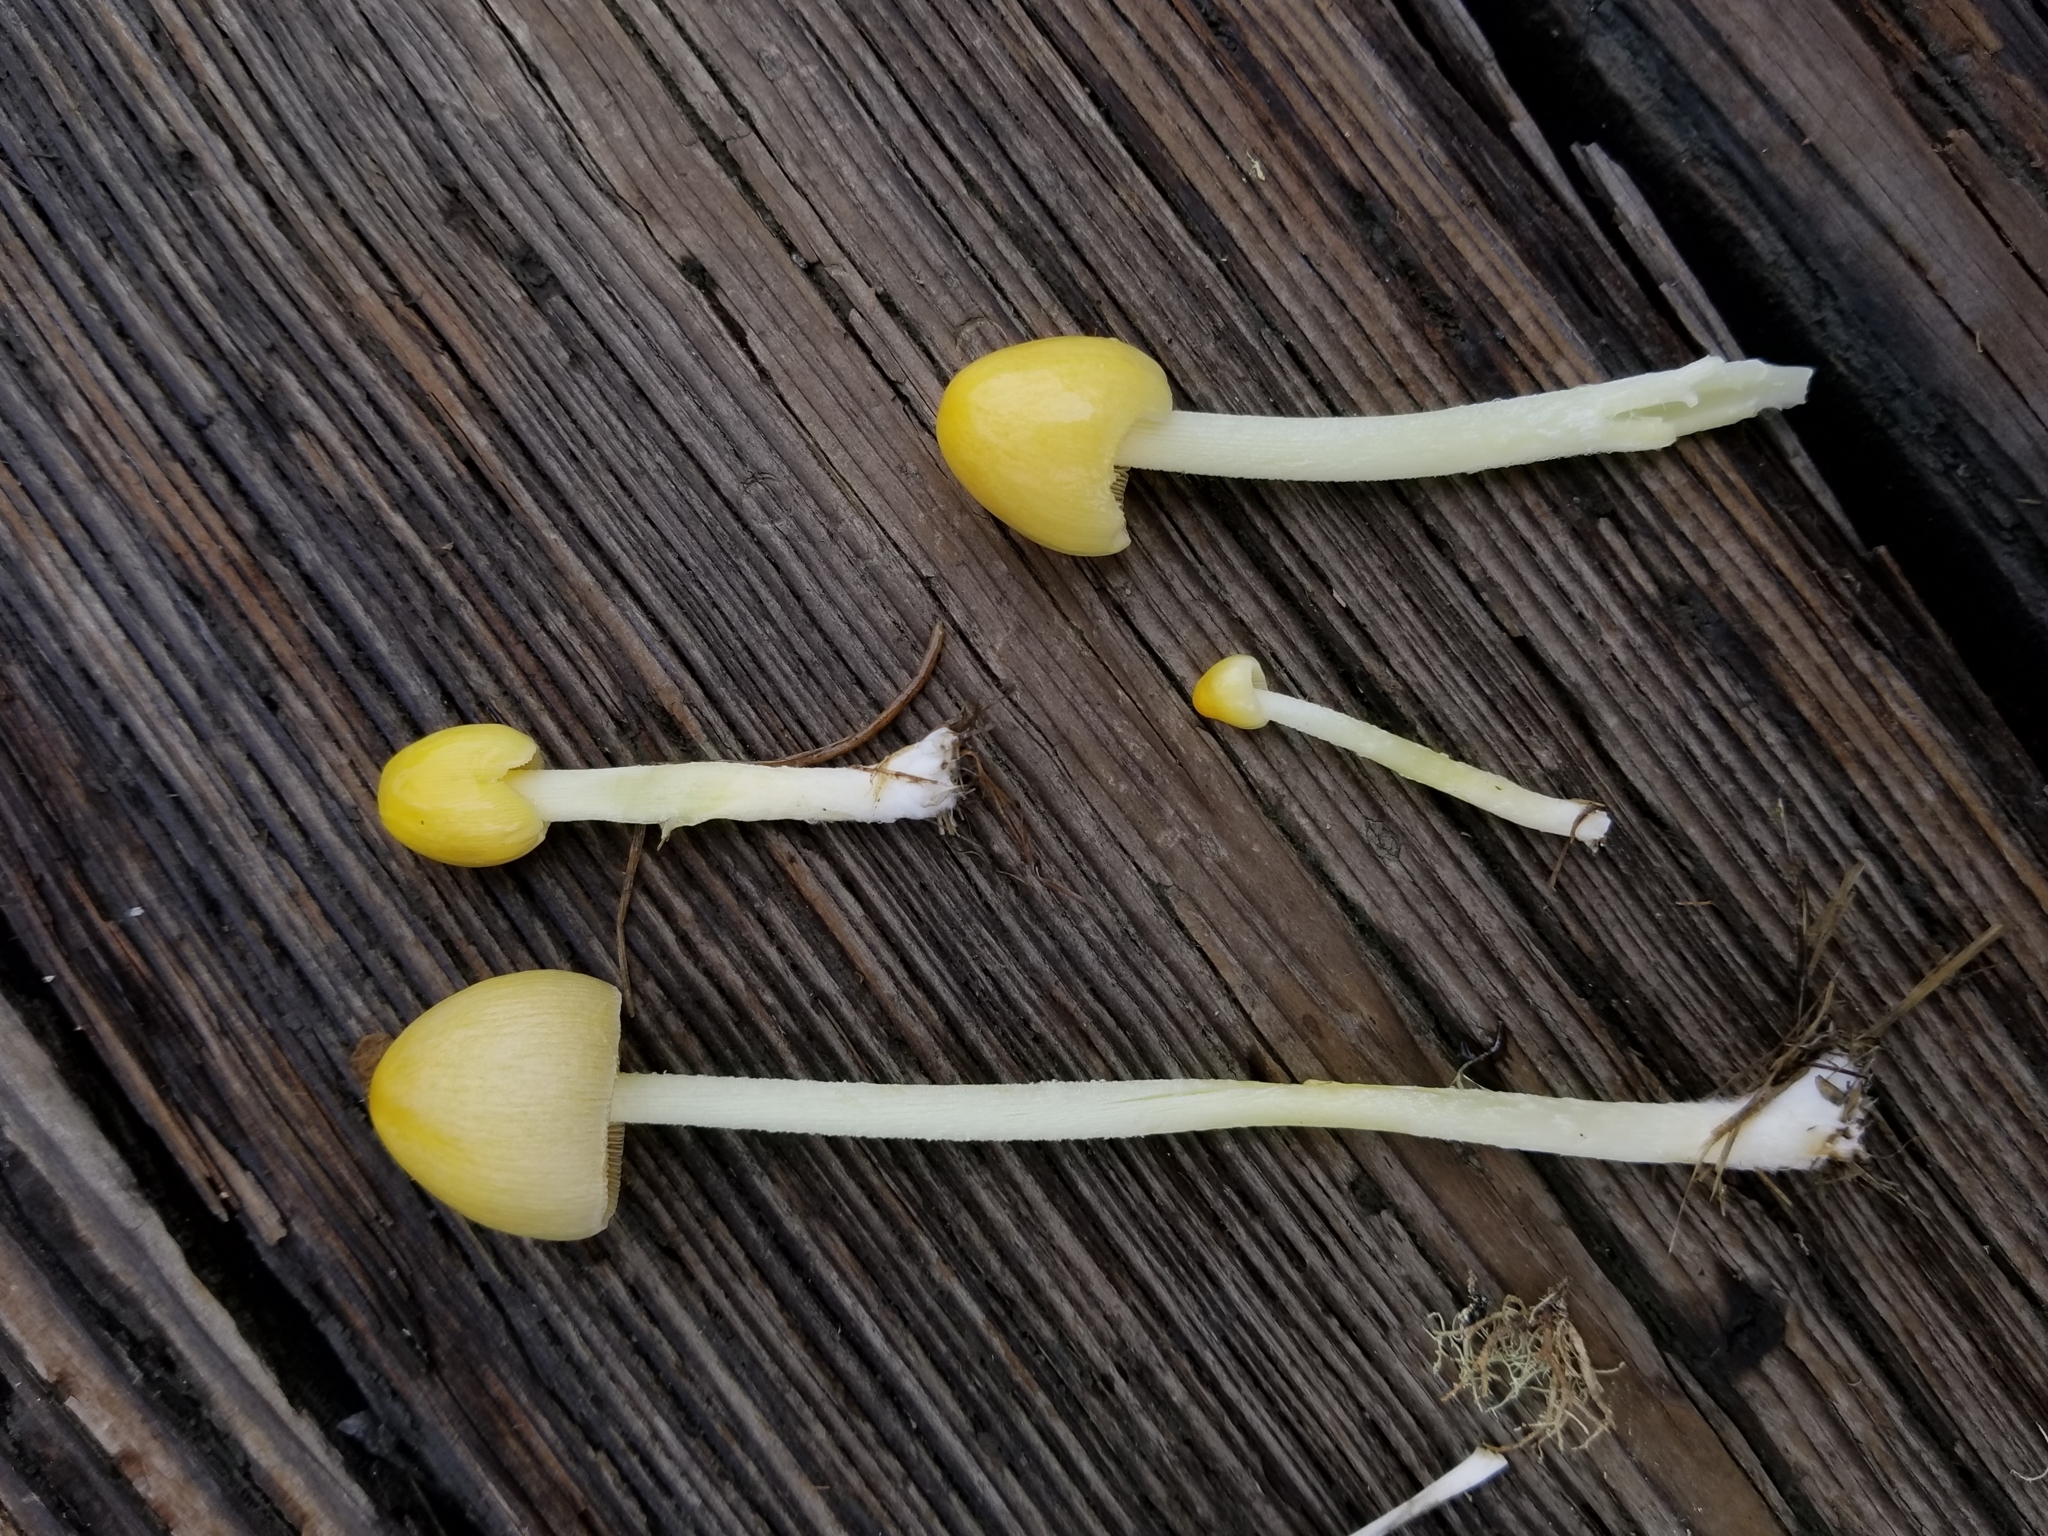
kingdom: Fungi
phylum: Basidiomycota
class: Agaricomycetes
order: Agaricales
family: Bolbitiaceae
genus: Bolbitius
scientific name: Bolbitius titubans
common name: Yellow fieldcap
